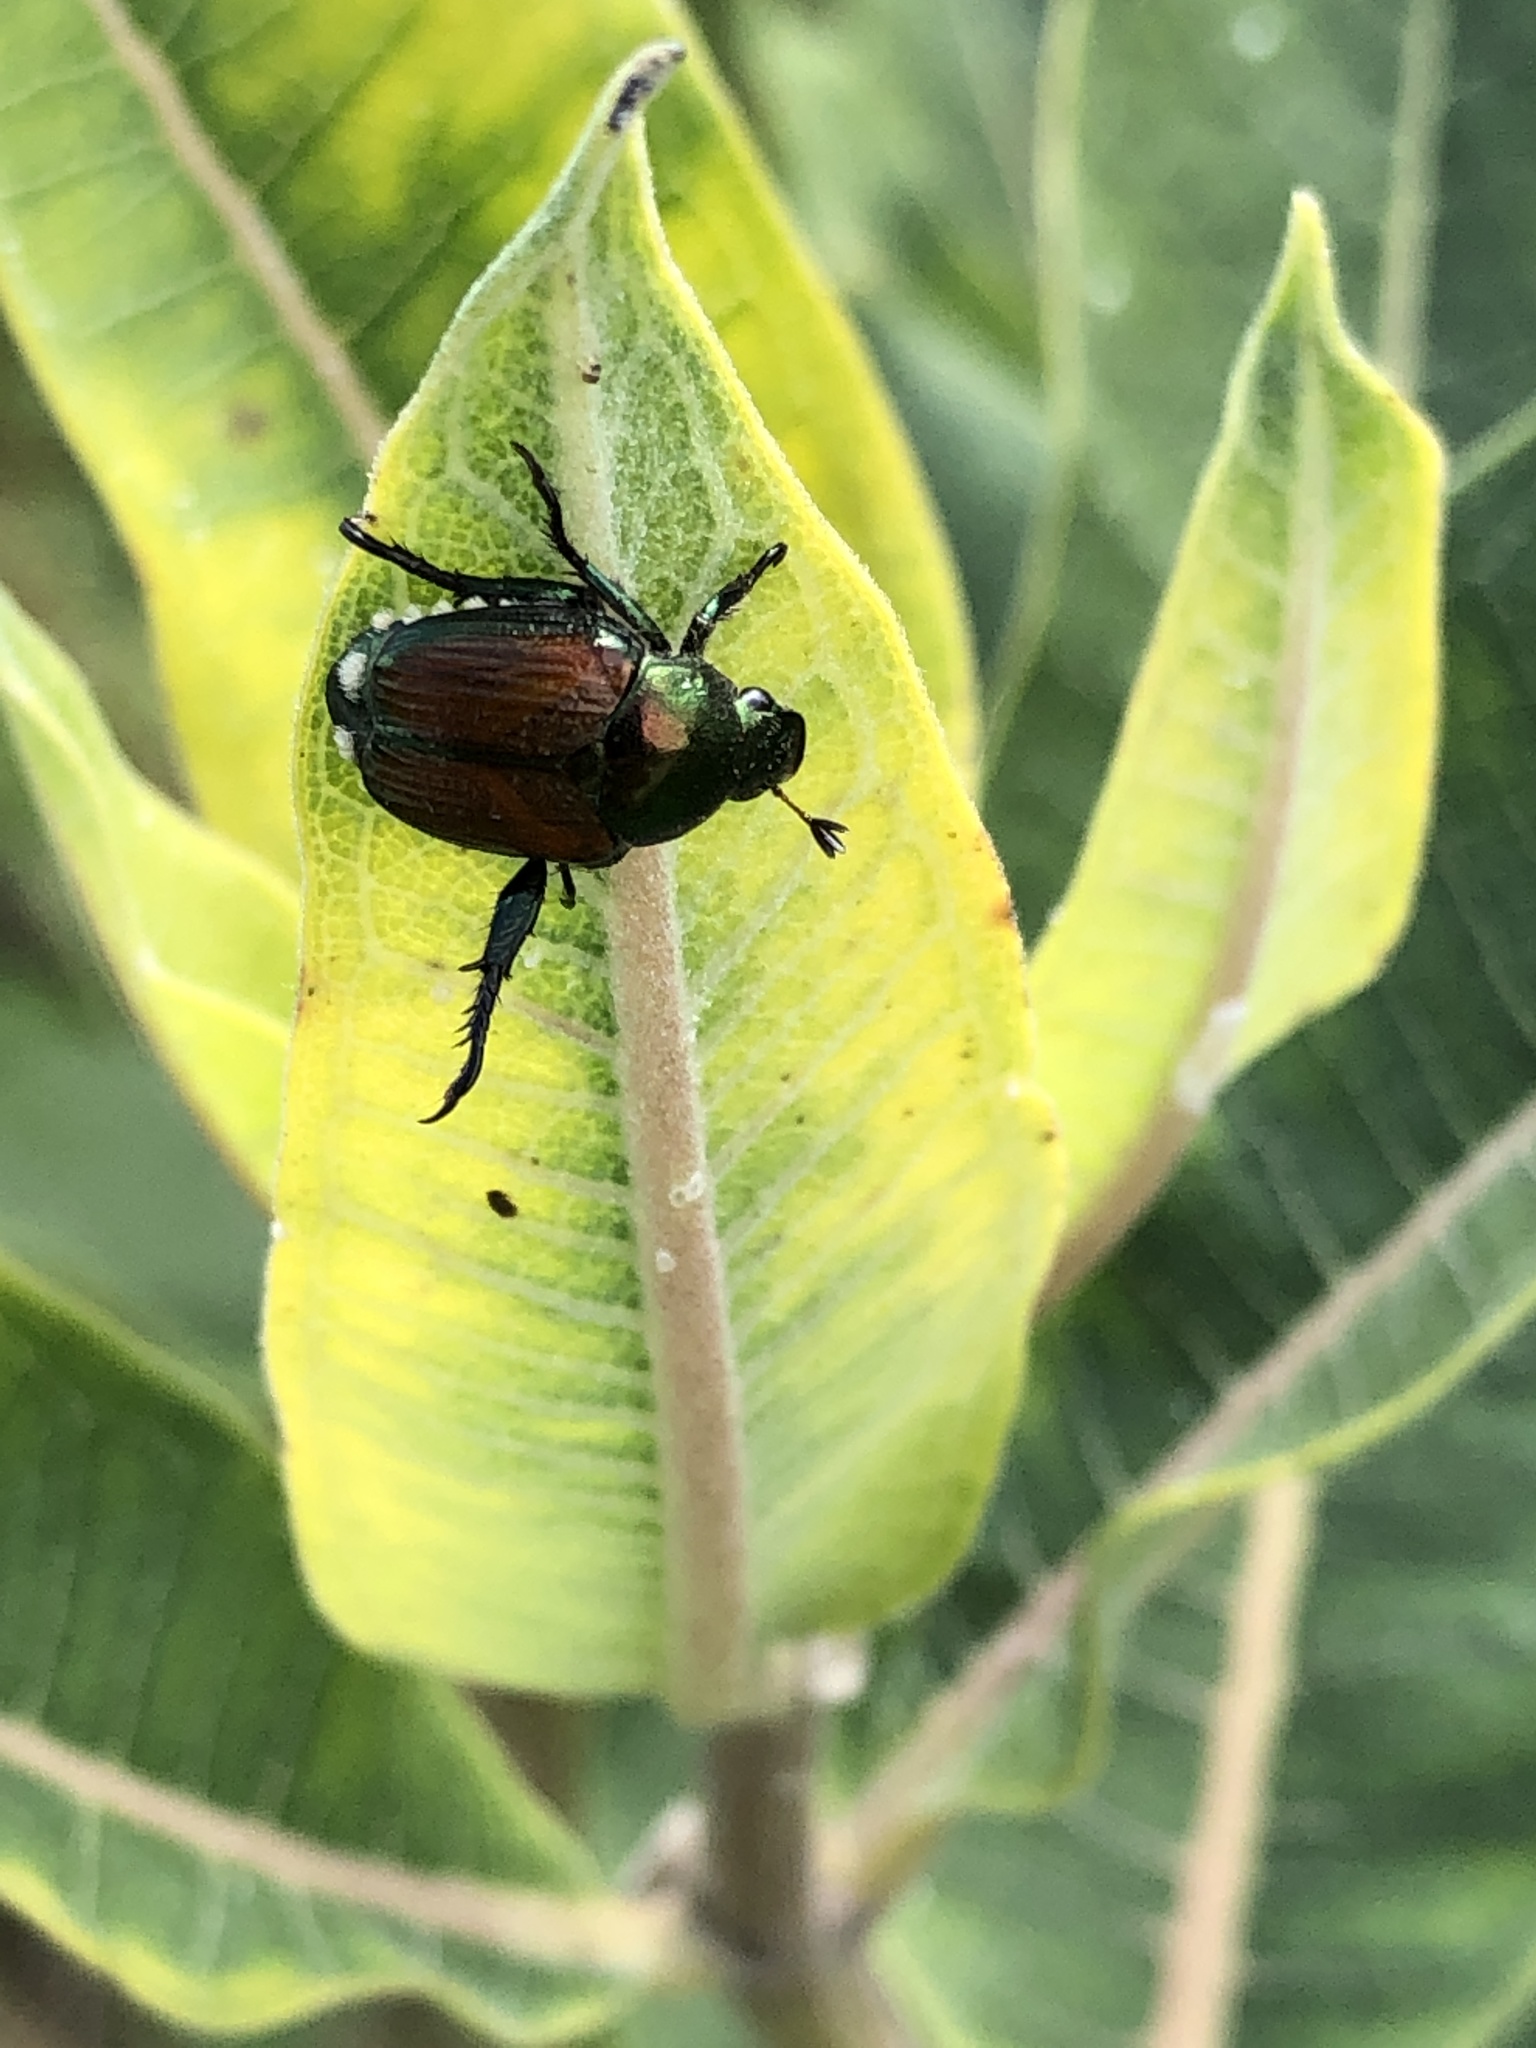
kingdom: Animalia
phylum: Arthropoda
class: Insecta
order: Coleoptera
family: Scarabaeidae
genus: Popillia
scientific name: Popillia japonica
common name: Japanese beetle
